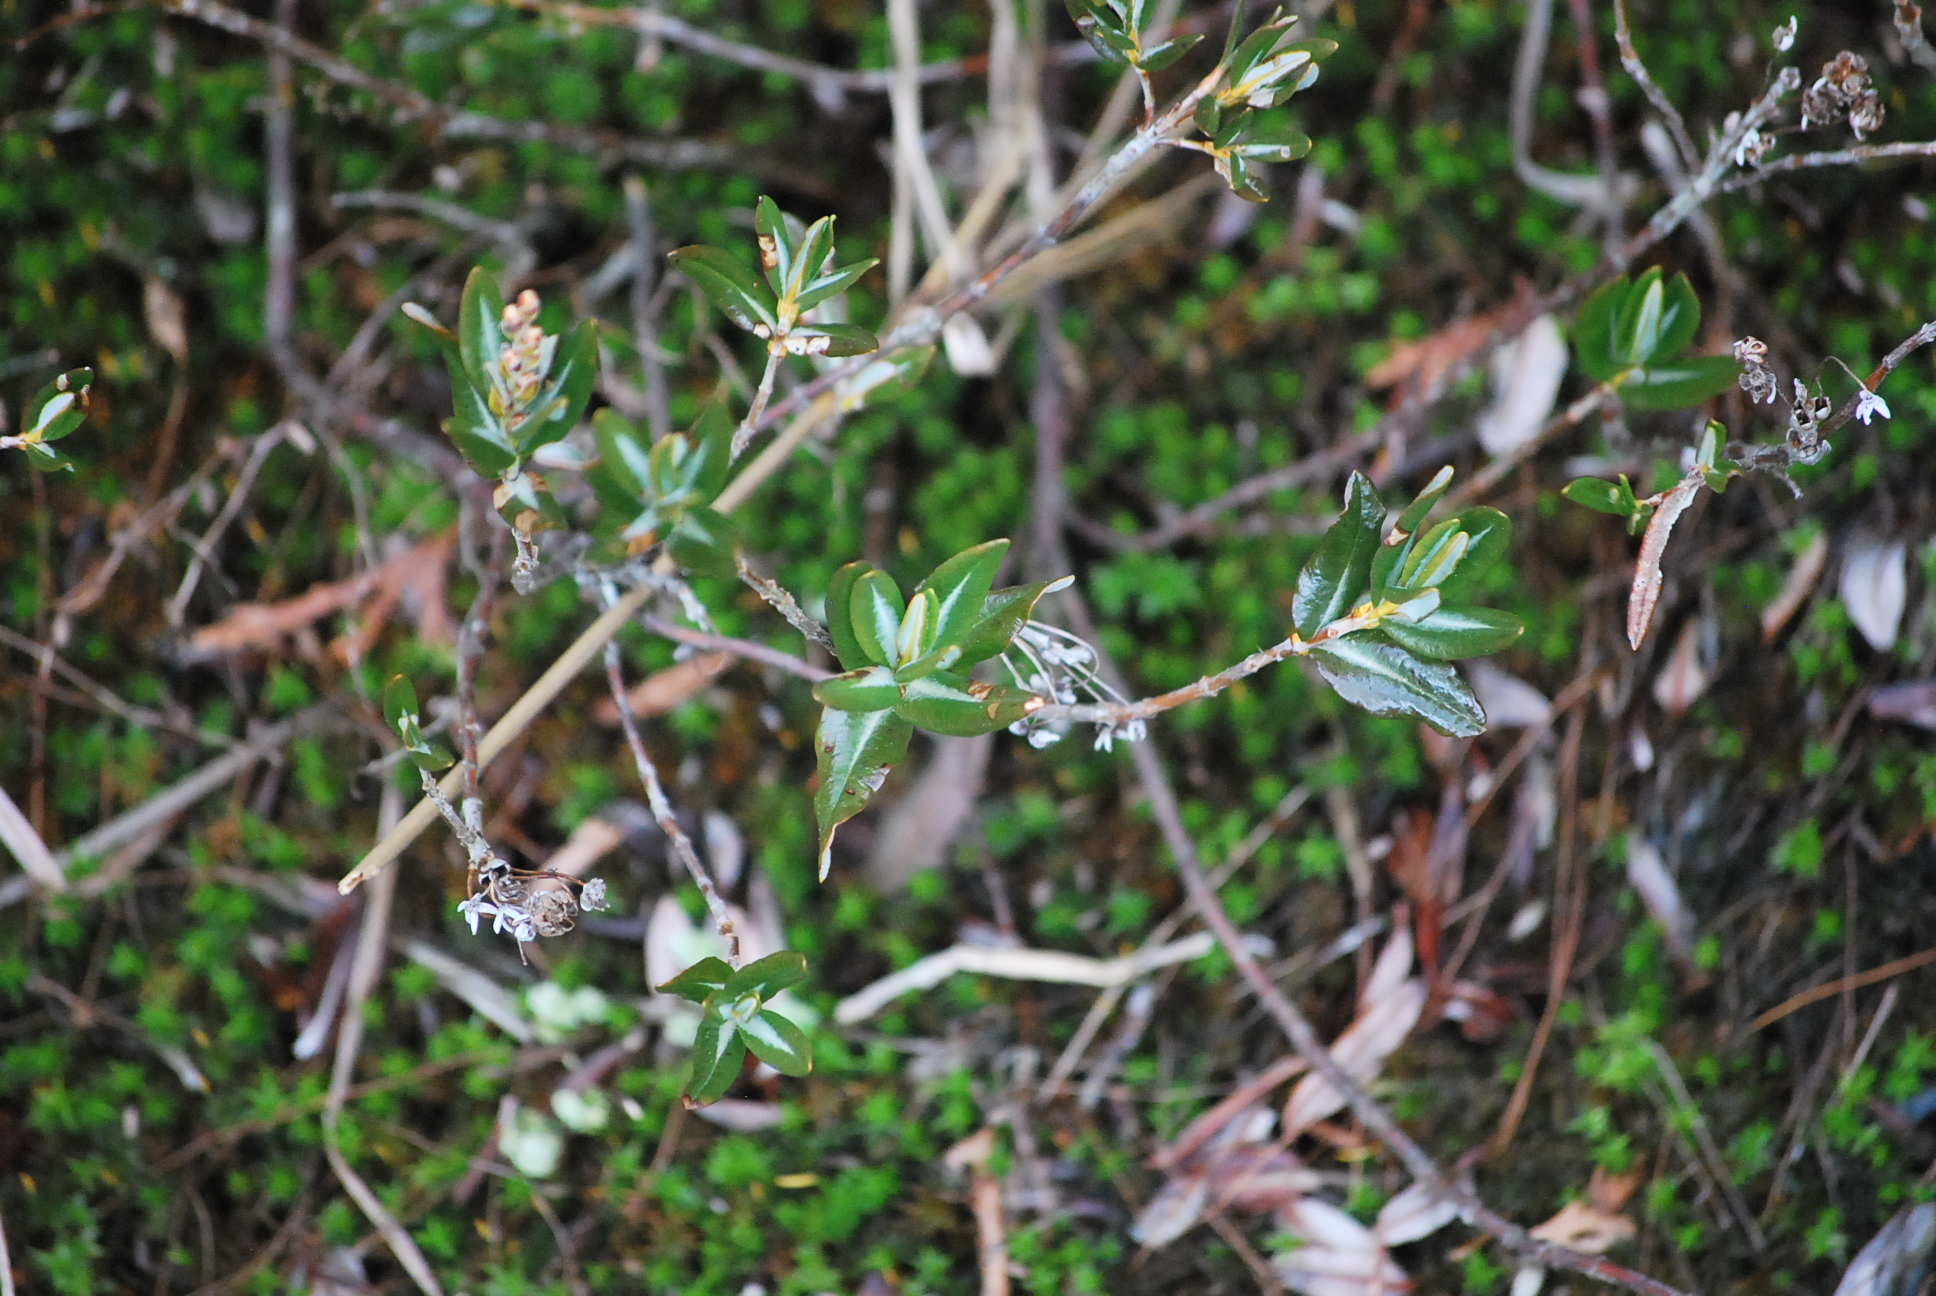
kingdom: Plantae
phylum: Tracheophyta
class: Magnoliopsida
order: Ericales
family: Ericaceae
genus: Kalmia
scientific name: Kalmia microphylla
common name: Alpine bog laurel
